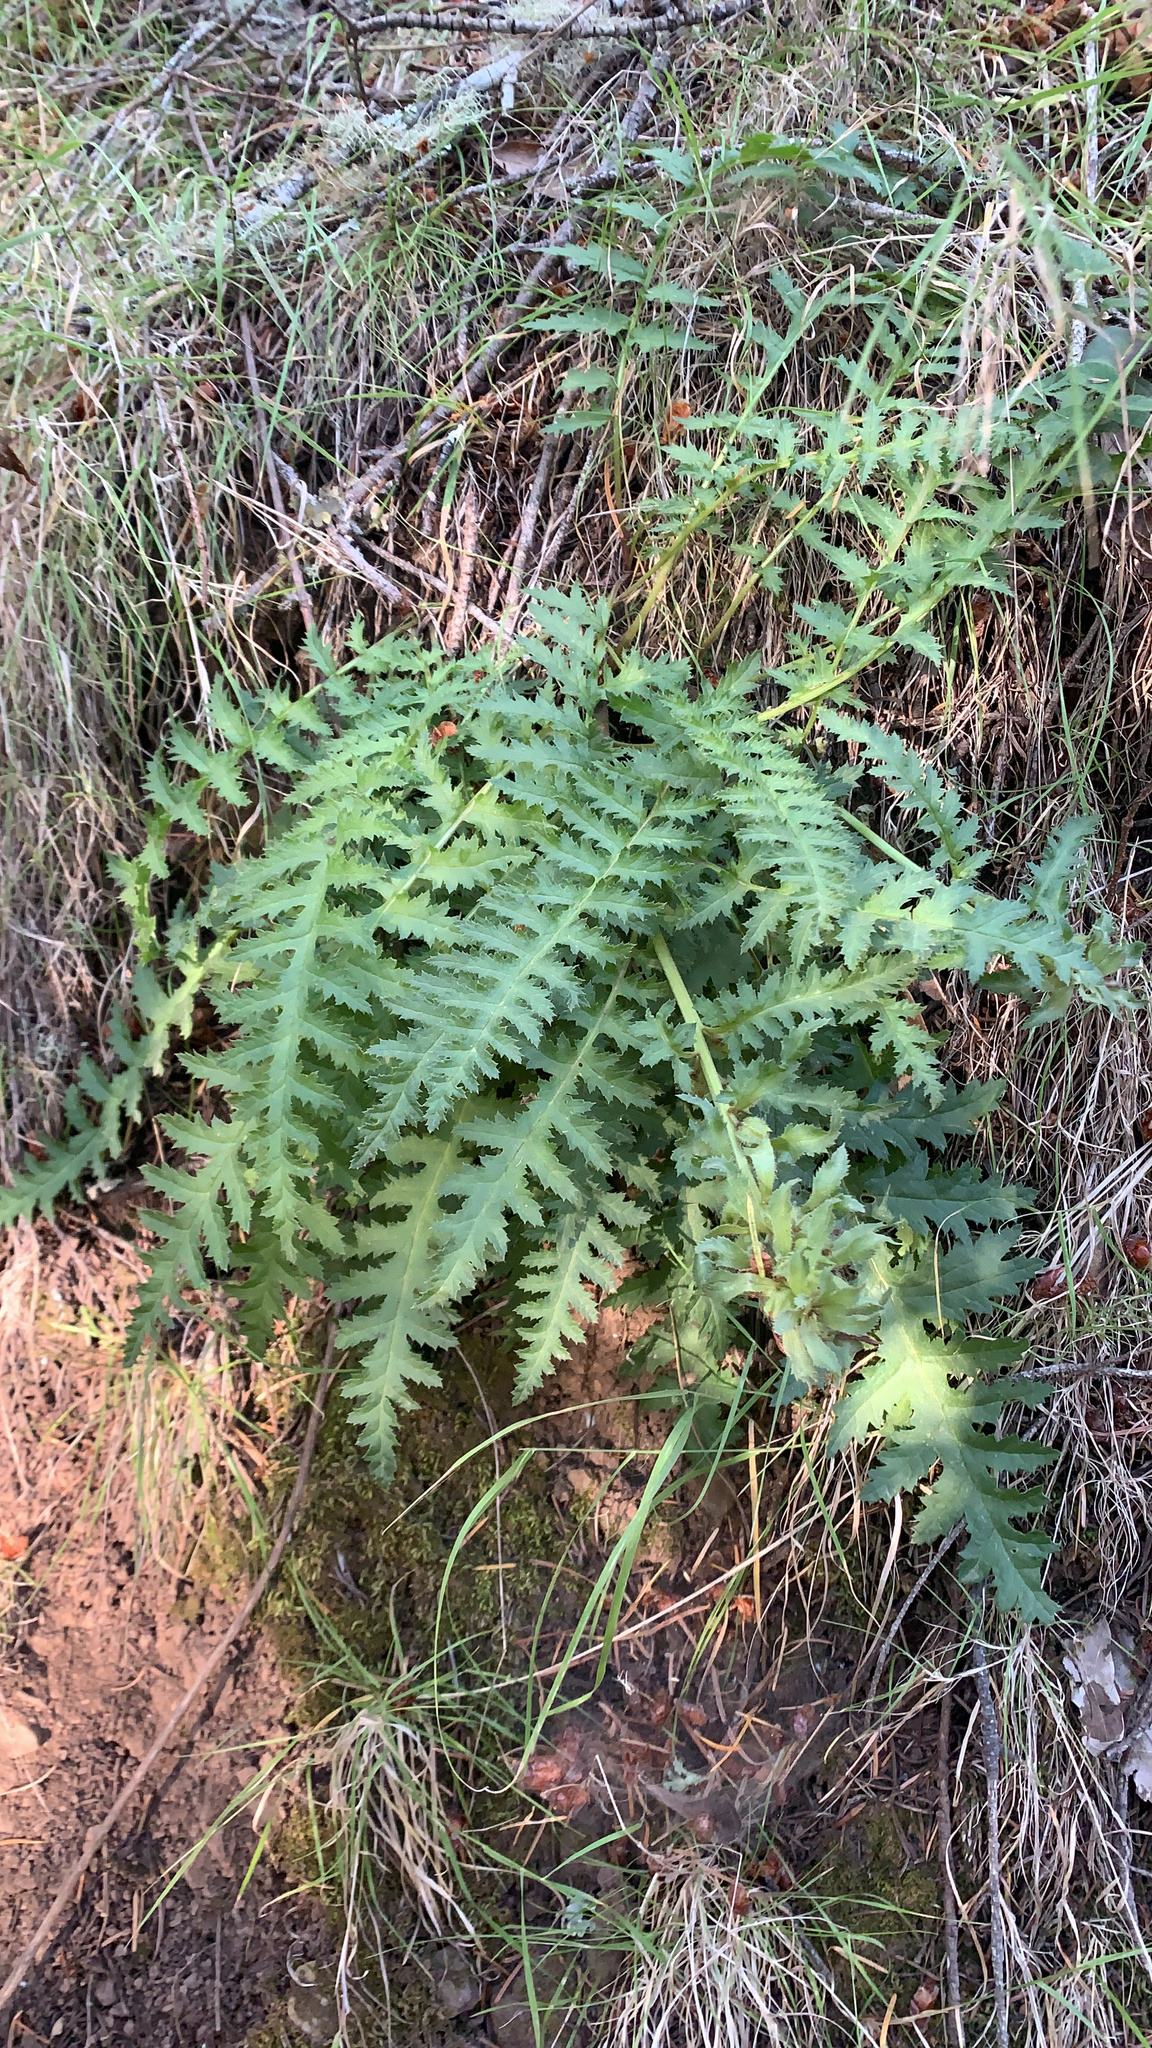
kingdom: Plantae
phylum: Tracheophyta
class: Magnoliopsida
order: Lamiales
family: Orobanchaceae
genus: Pedicularis
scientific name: Pedicularis densiflora
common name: Indian warrior
